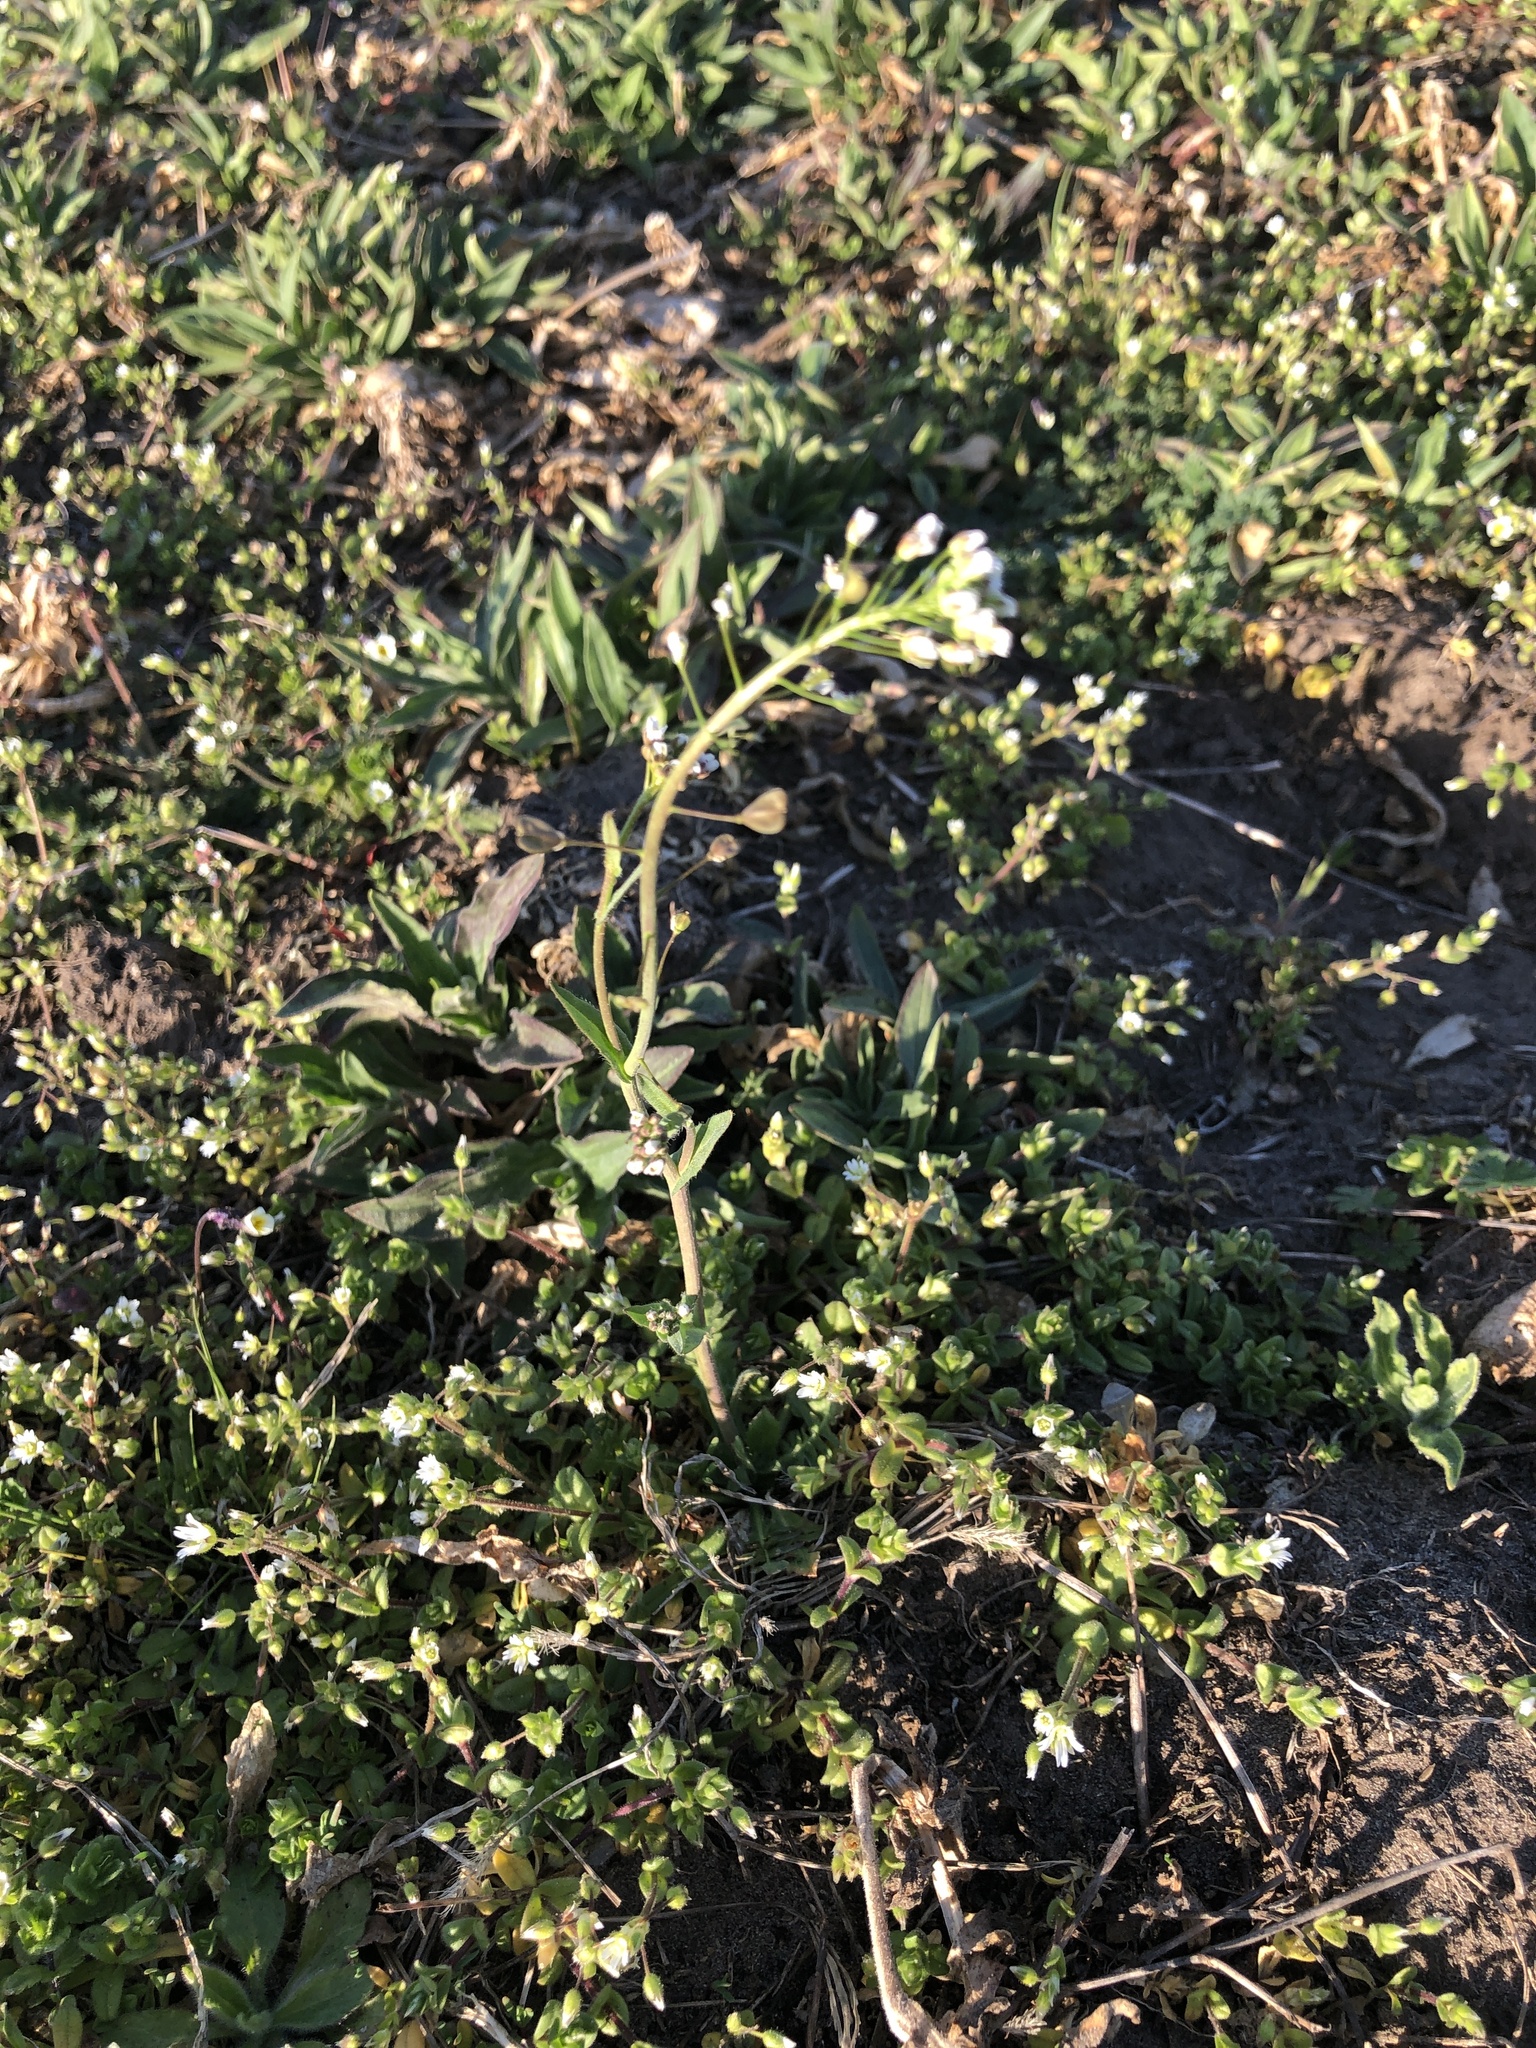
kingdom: Plantae
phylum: Tracheophyta
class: Magnoliopsida
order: Brassicales
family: Brassicaceae
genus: Capsella
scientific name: Capsella bursa-pastoris
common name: Shepherd's purse
